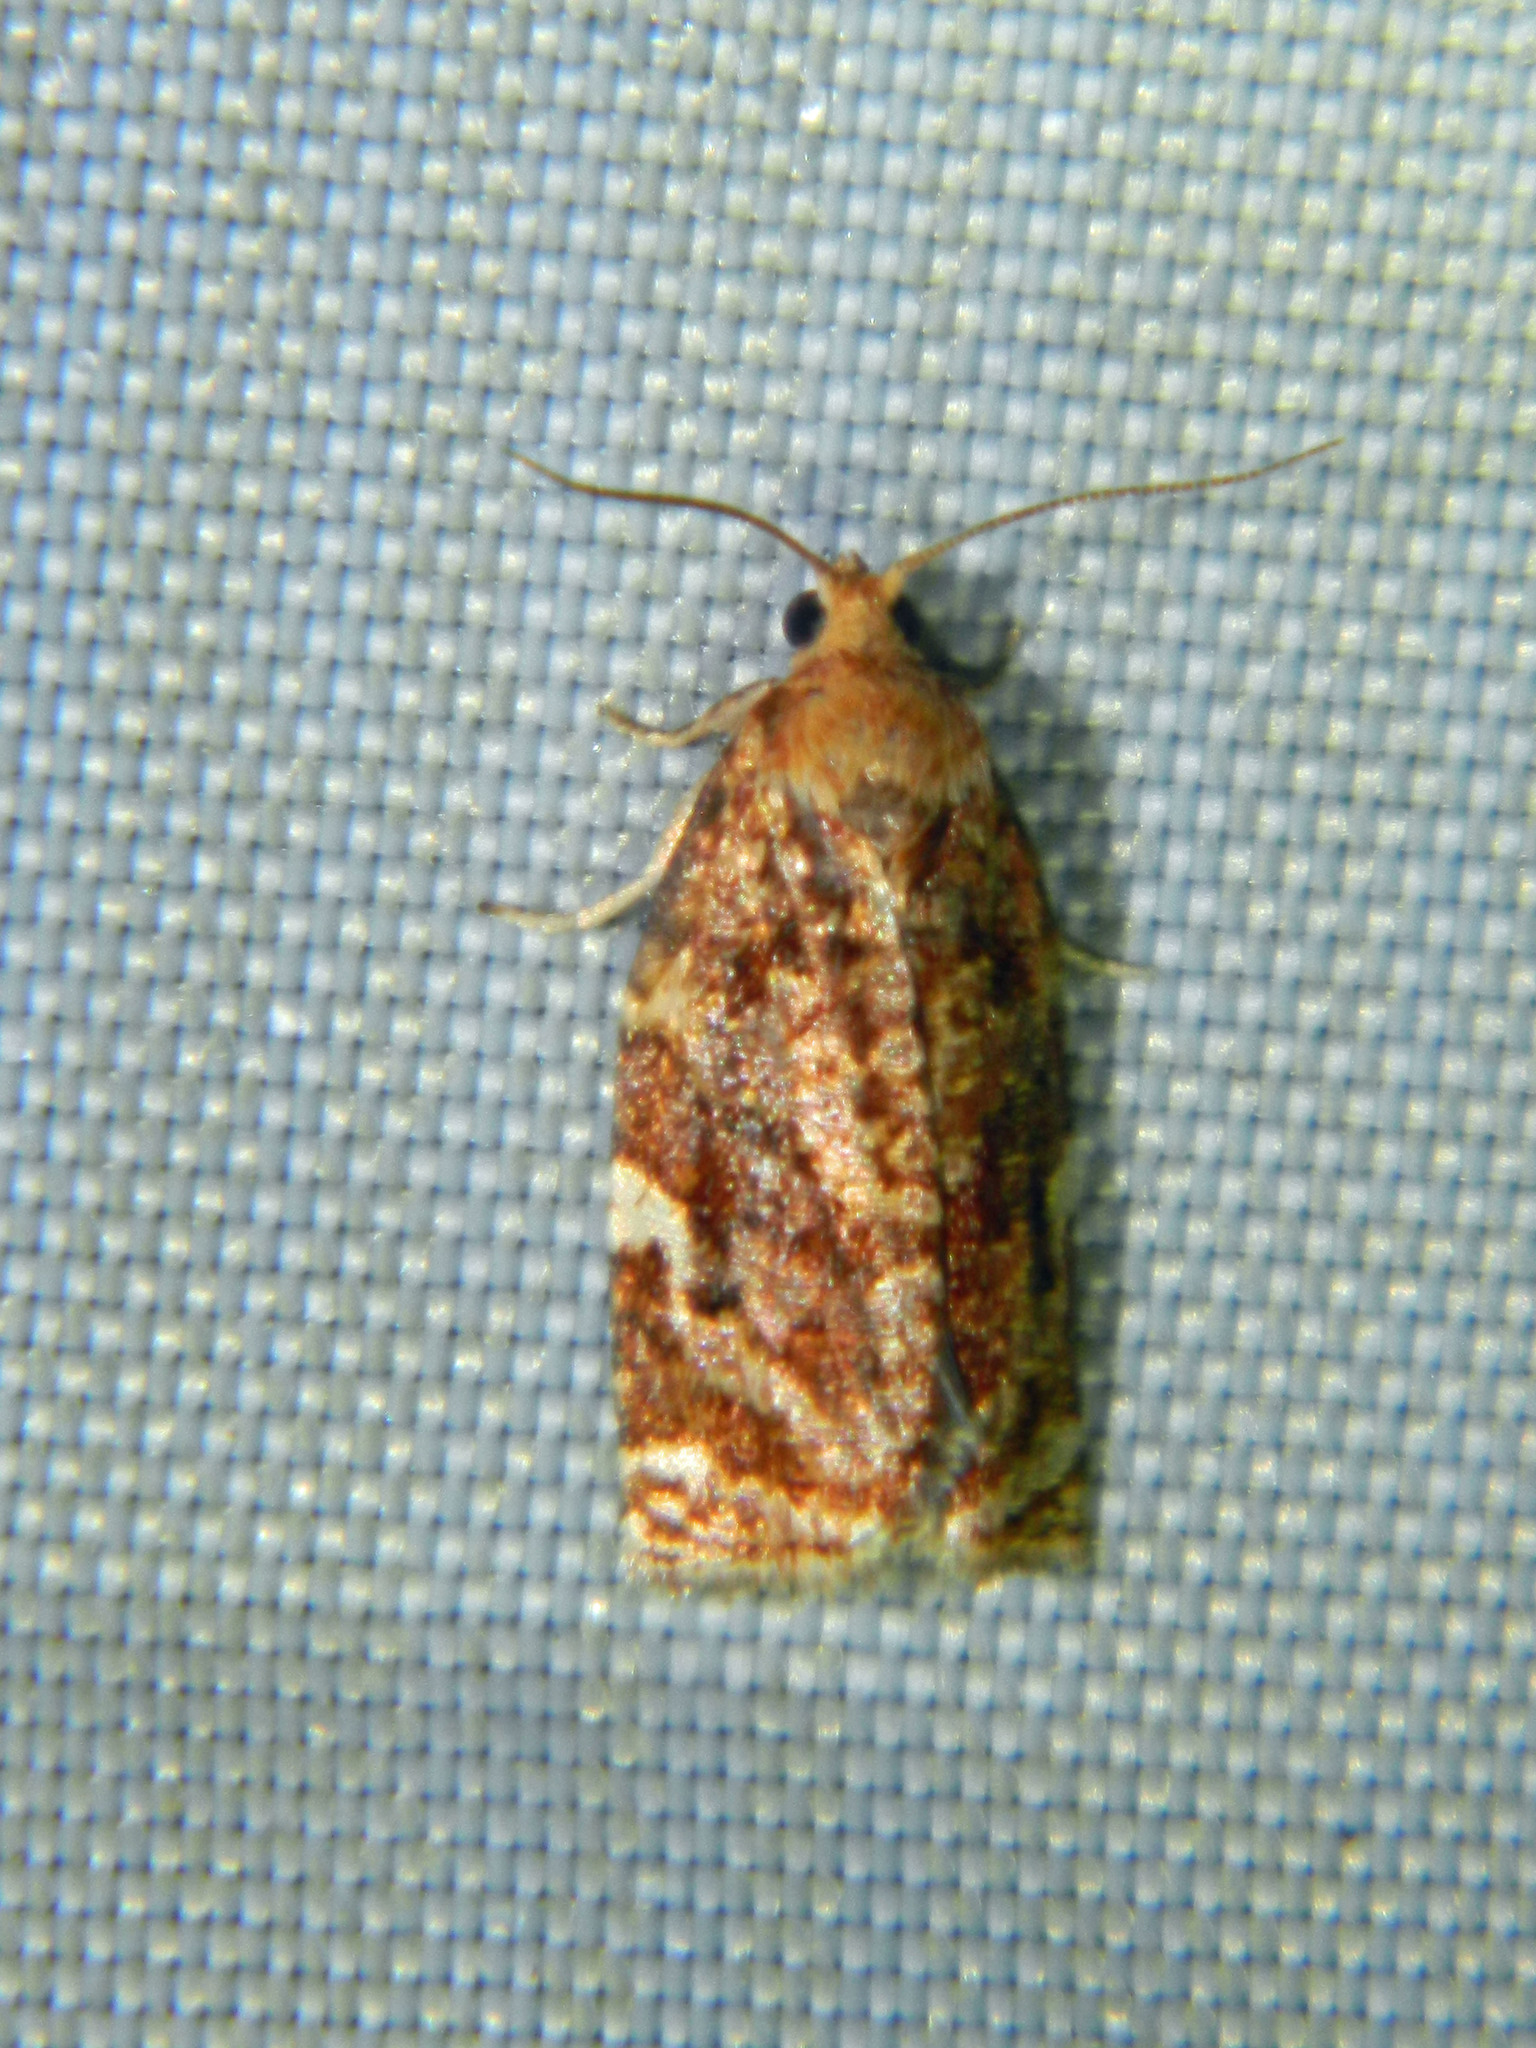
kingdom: Animalia
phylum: Arthropoda
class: Insecta
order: Lepidoptera
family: Tortricidae
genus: Archips
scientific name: Archips argyrospila
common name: Fruit-tree leafroller moth
